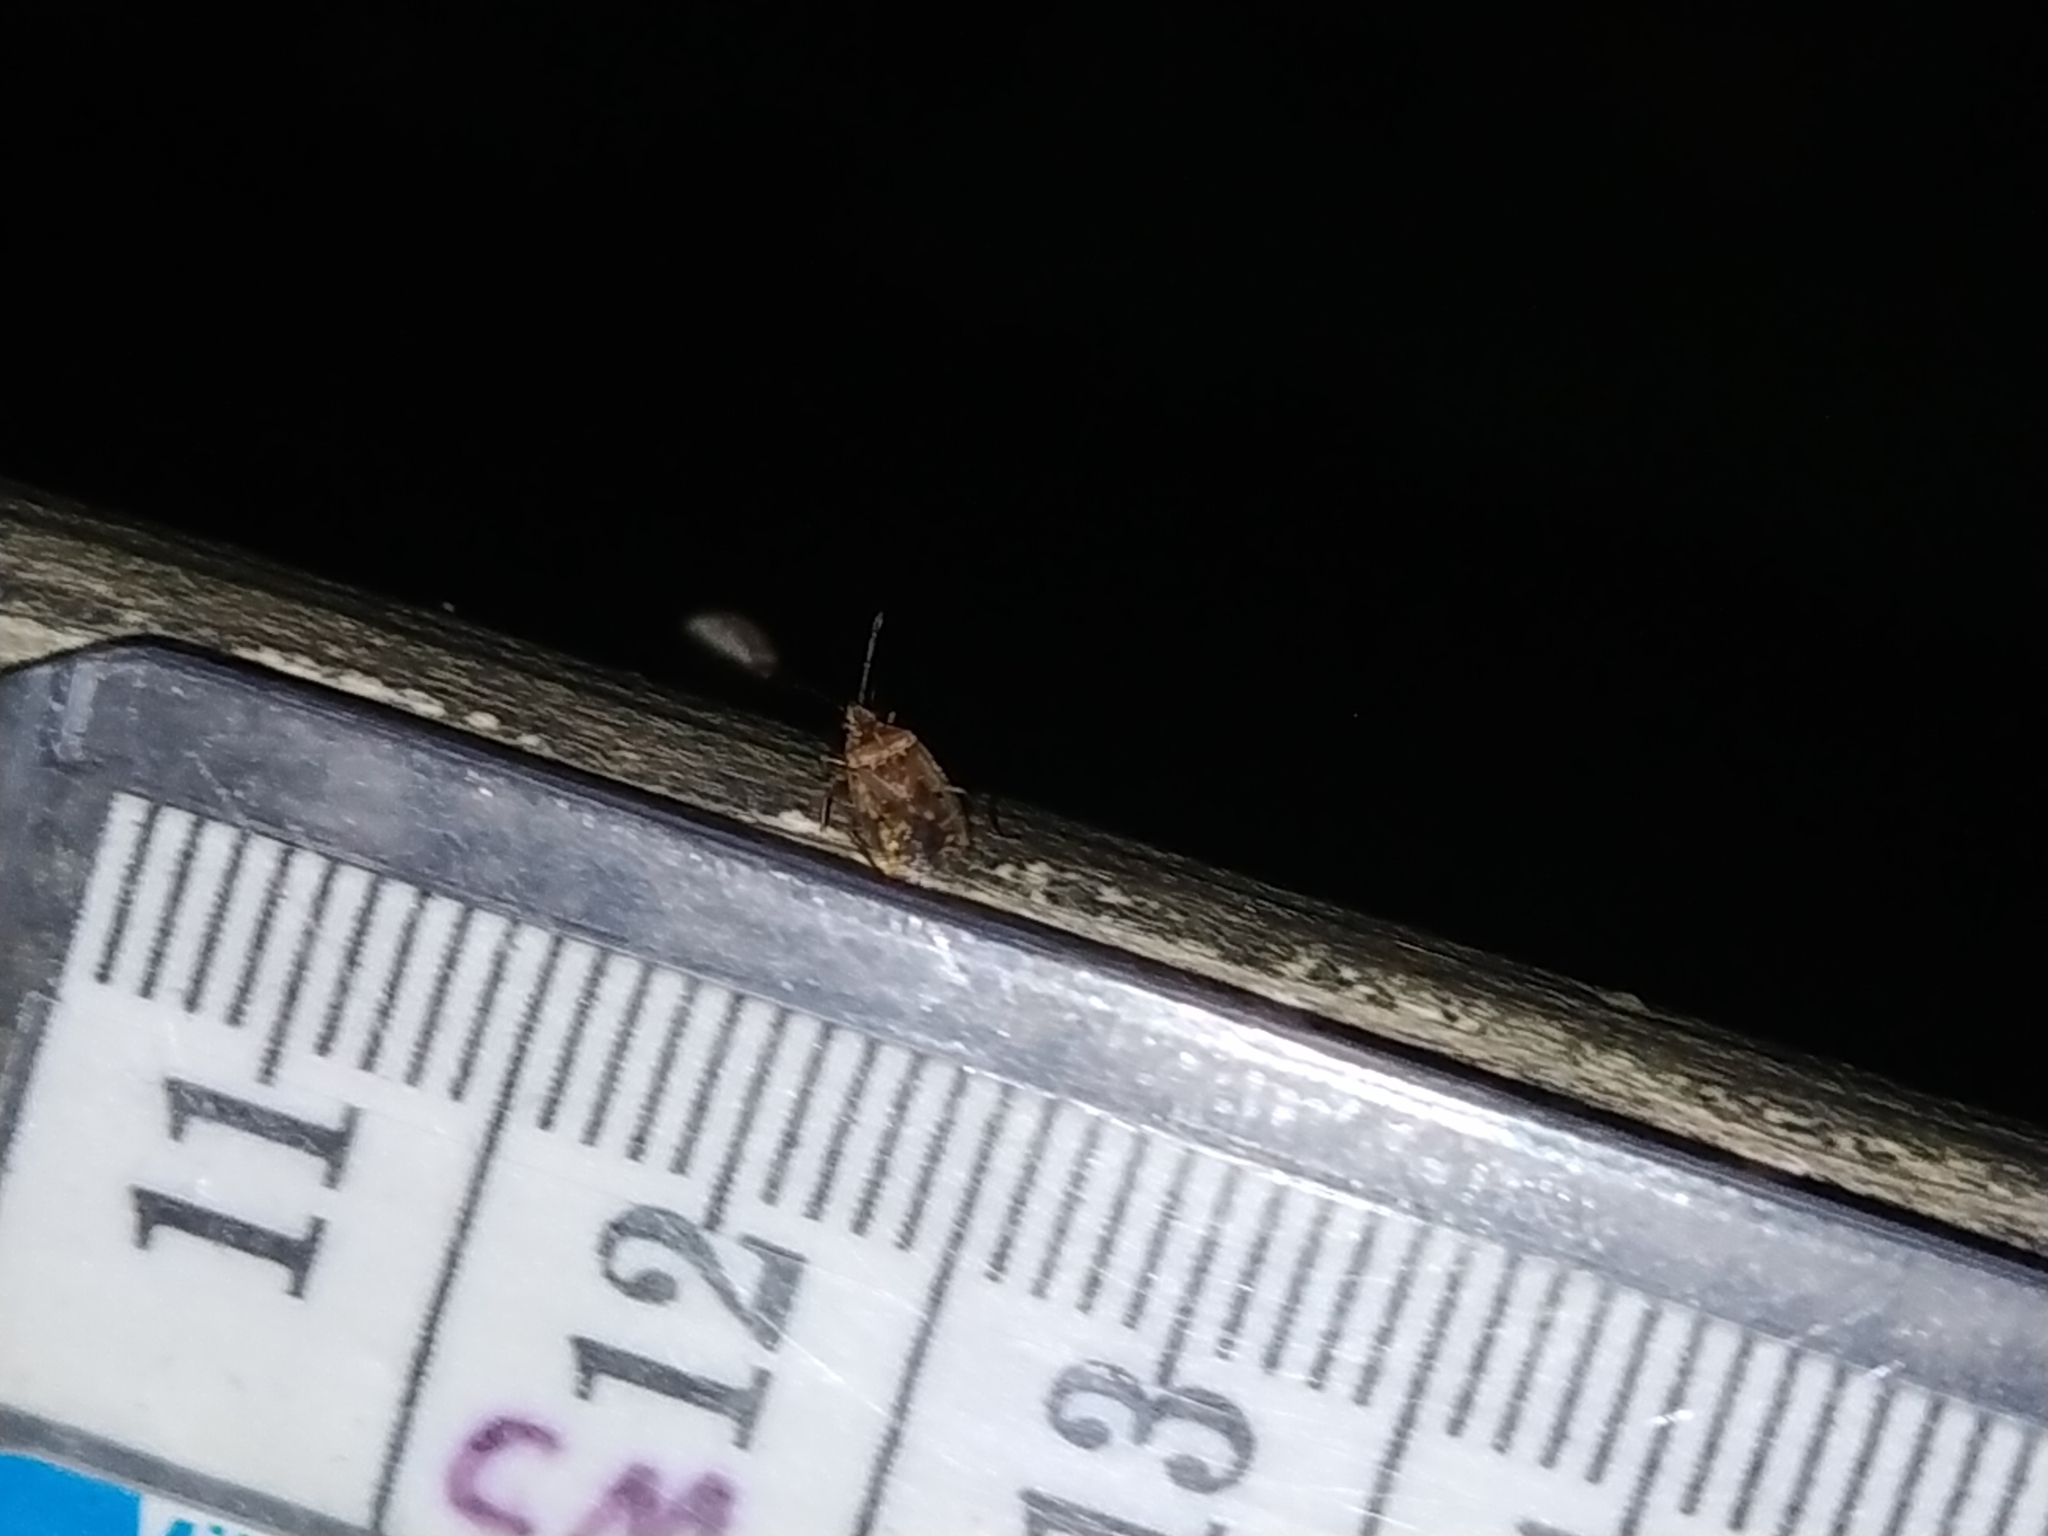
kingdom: Animalia
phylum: Arthropoda
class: Insecta
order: Hemiptera
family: Lygaeidae
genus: Kleidocerys
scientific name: Kleidocerys resedae
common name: Birch catkin bug
